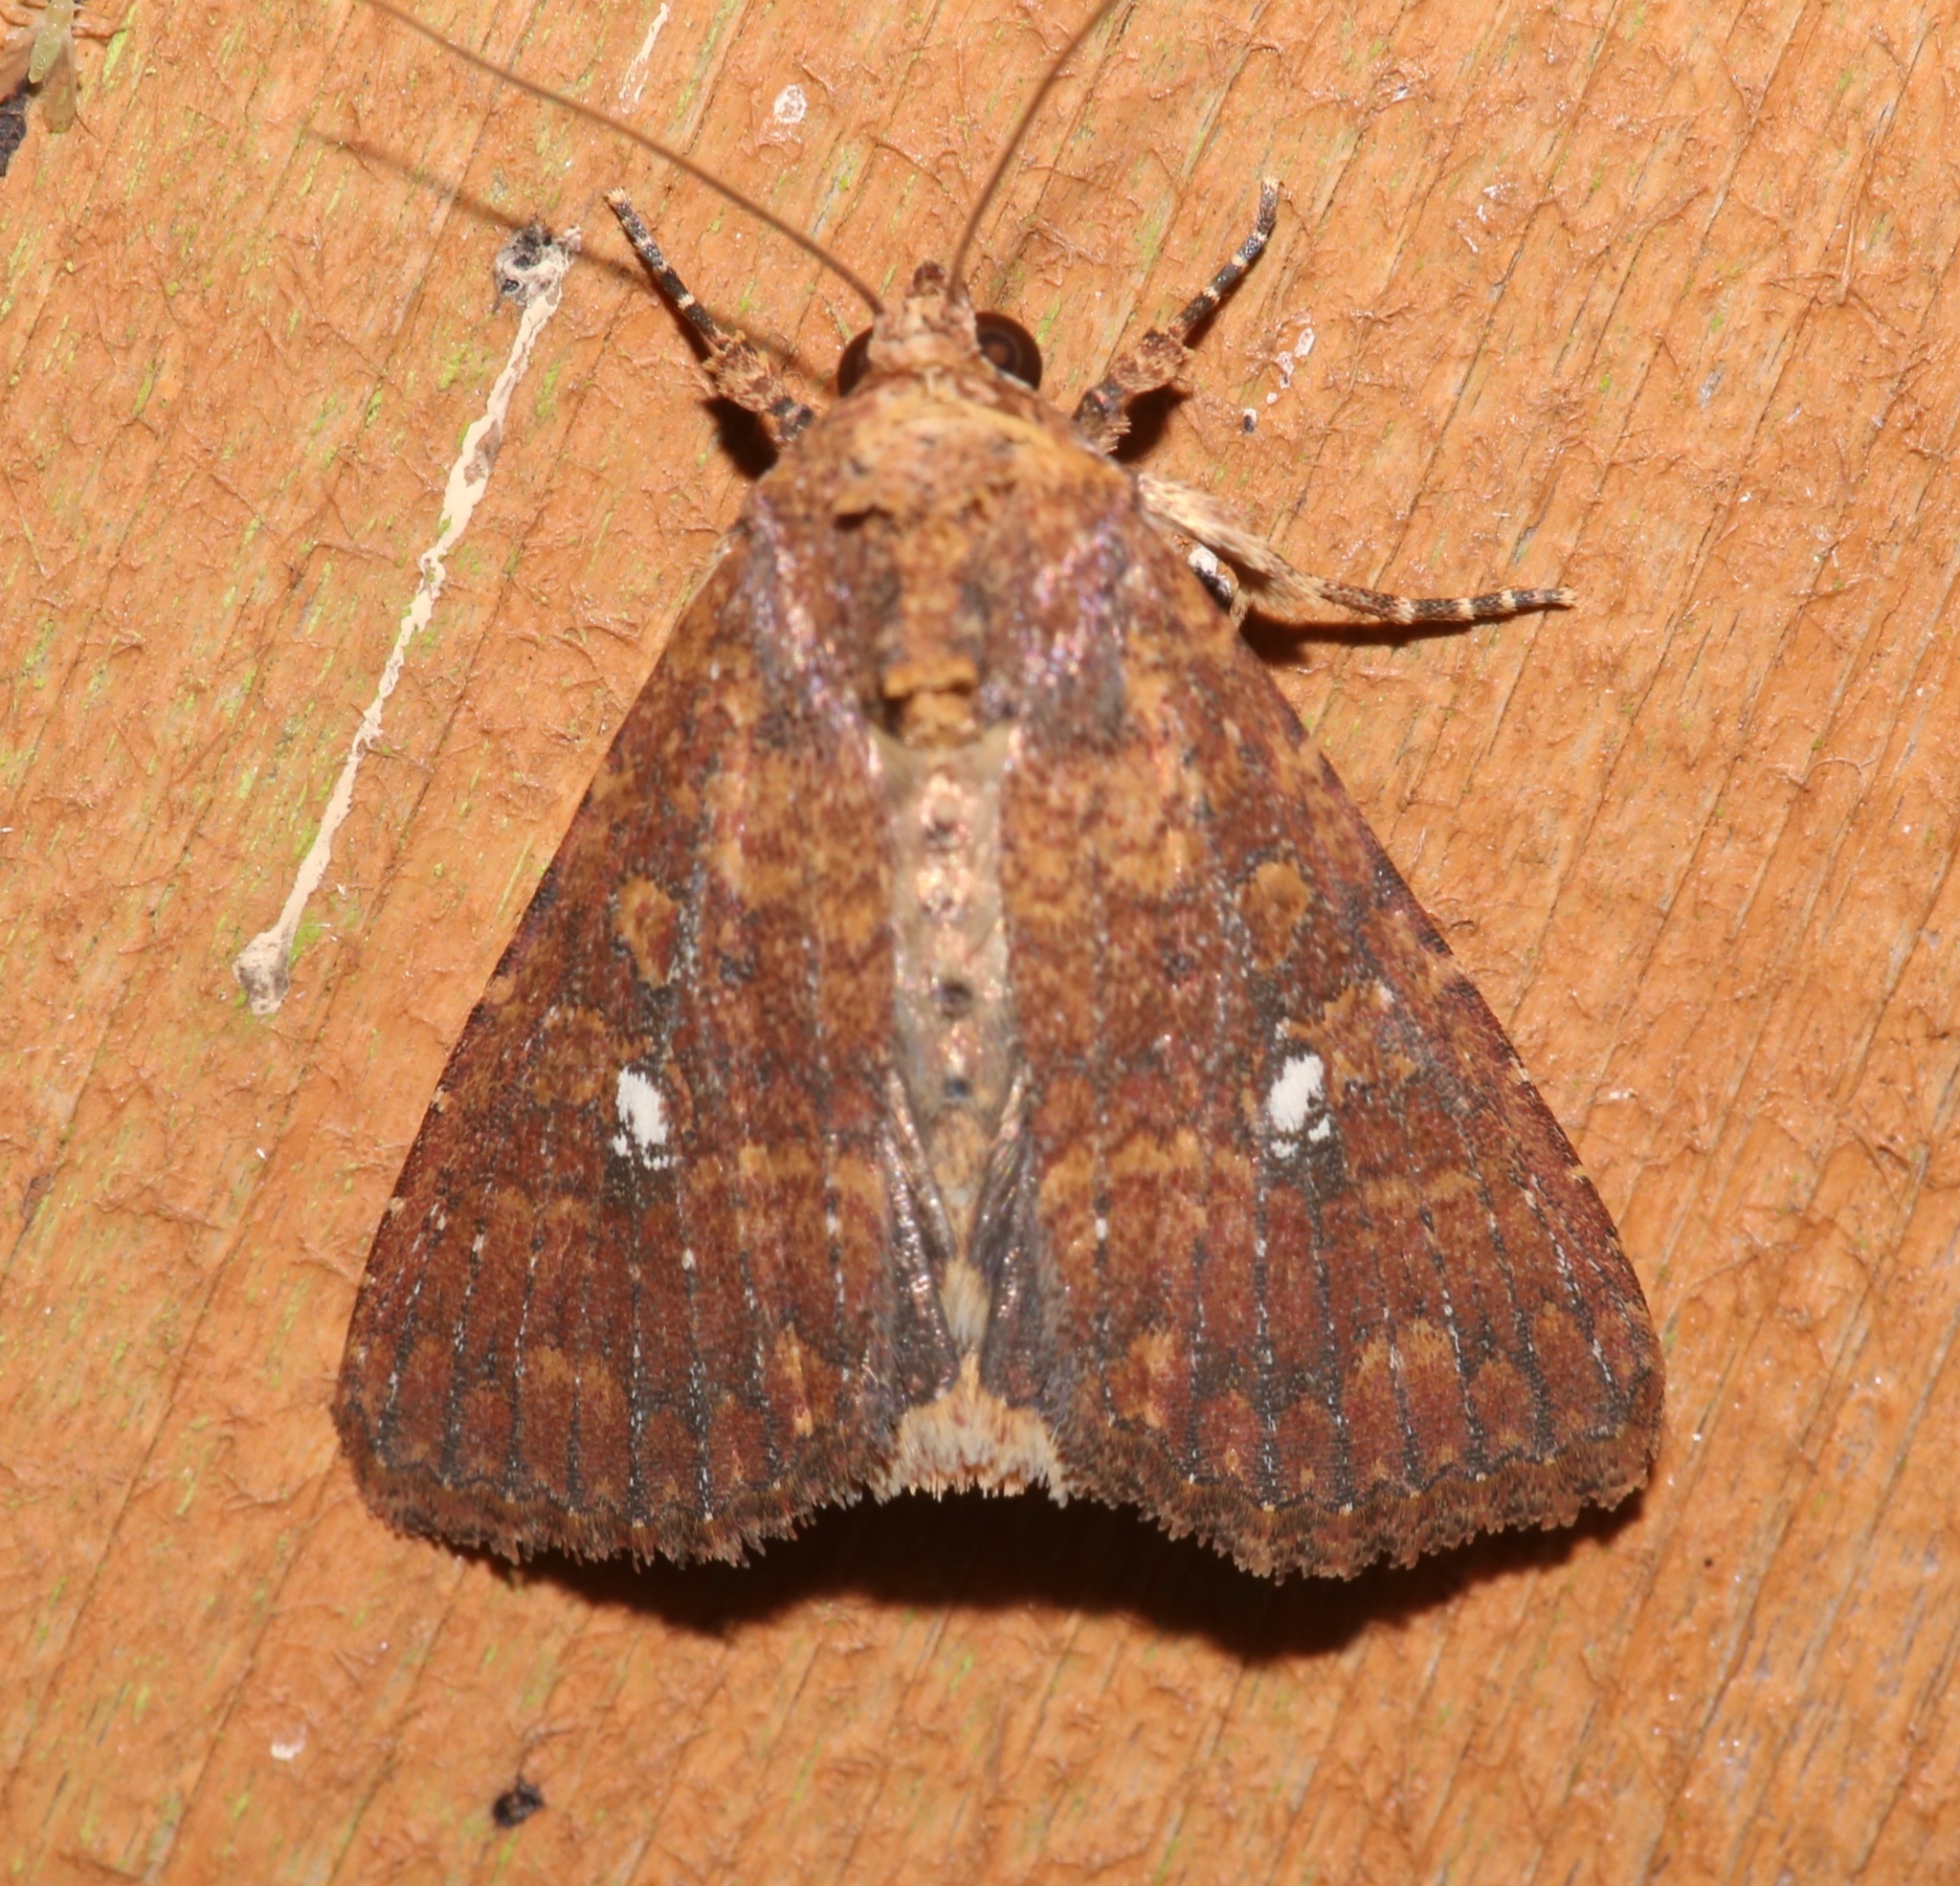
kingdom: Animalia
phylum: Arthropoda
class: Insecta
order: Lepidoptera
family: Noctuidae
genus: Condica
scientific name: Condica mobilis
